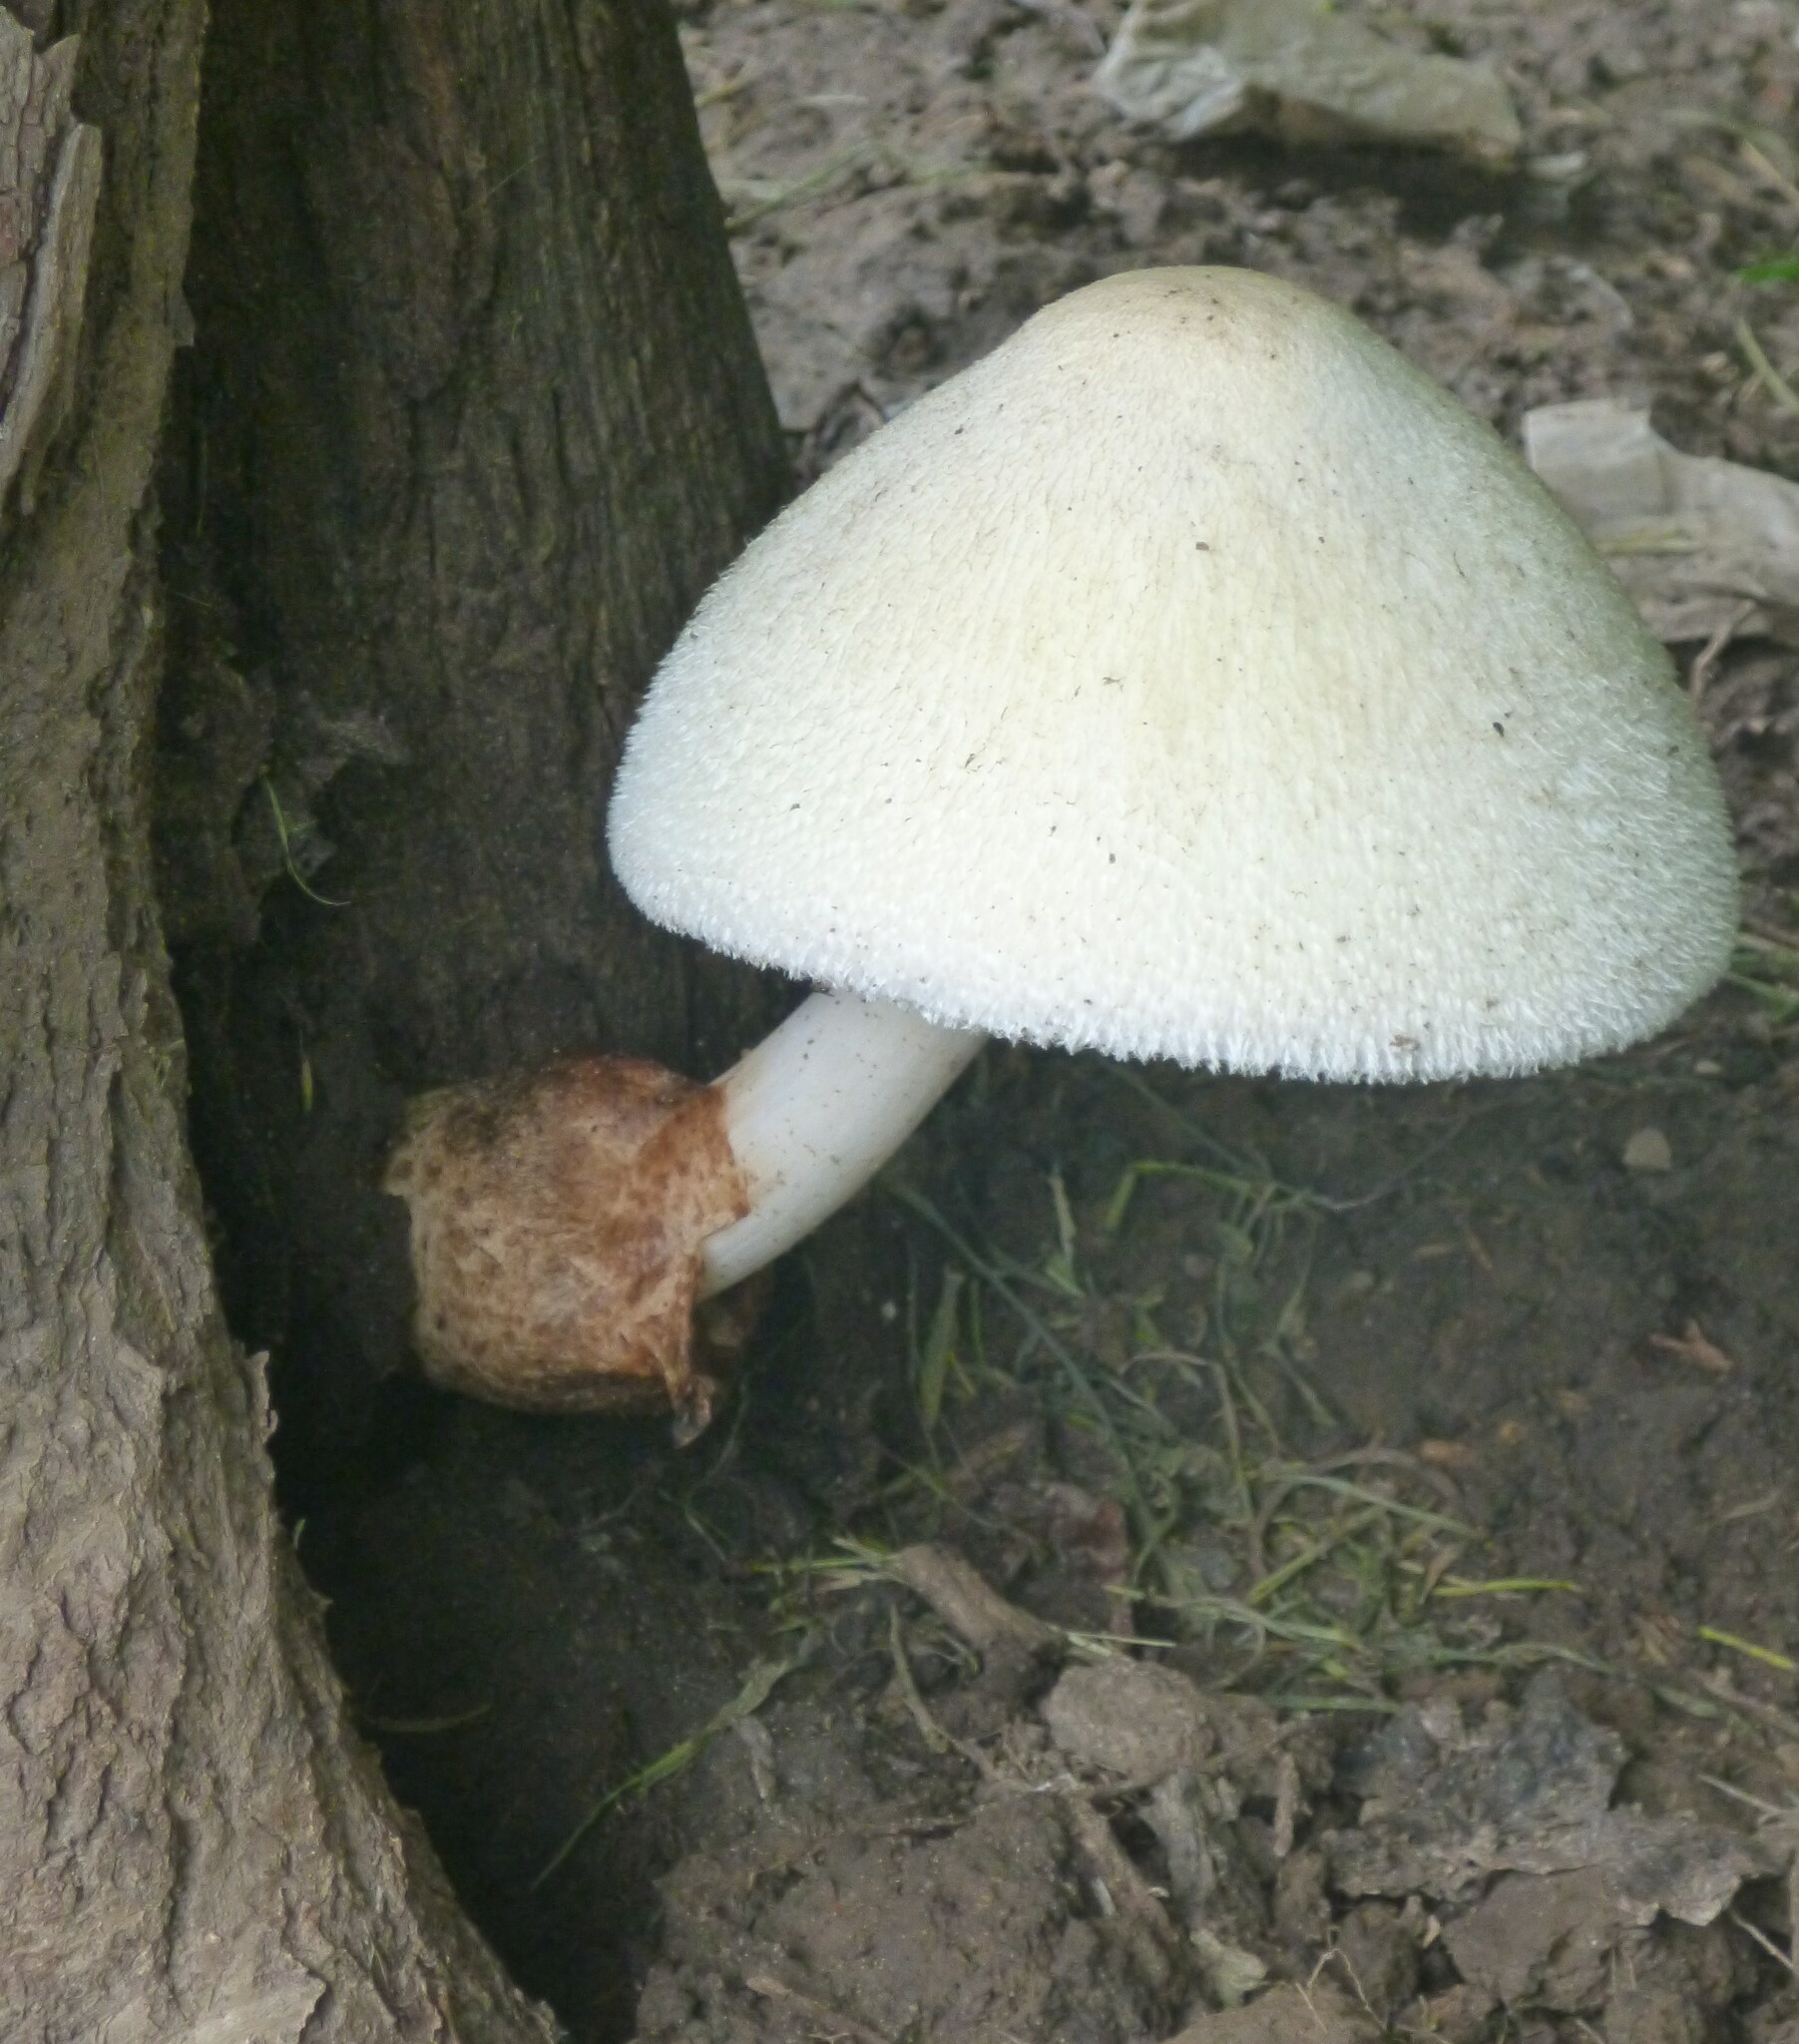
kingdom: Fungi
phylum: Basidiomycota
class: Agaricomycetes
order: Agaricales
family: Pluteaceae
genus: Volvariella
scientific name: Volvariella bombycina
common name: Silky rosegill
